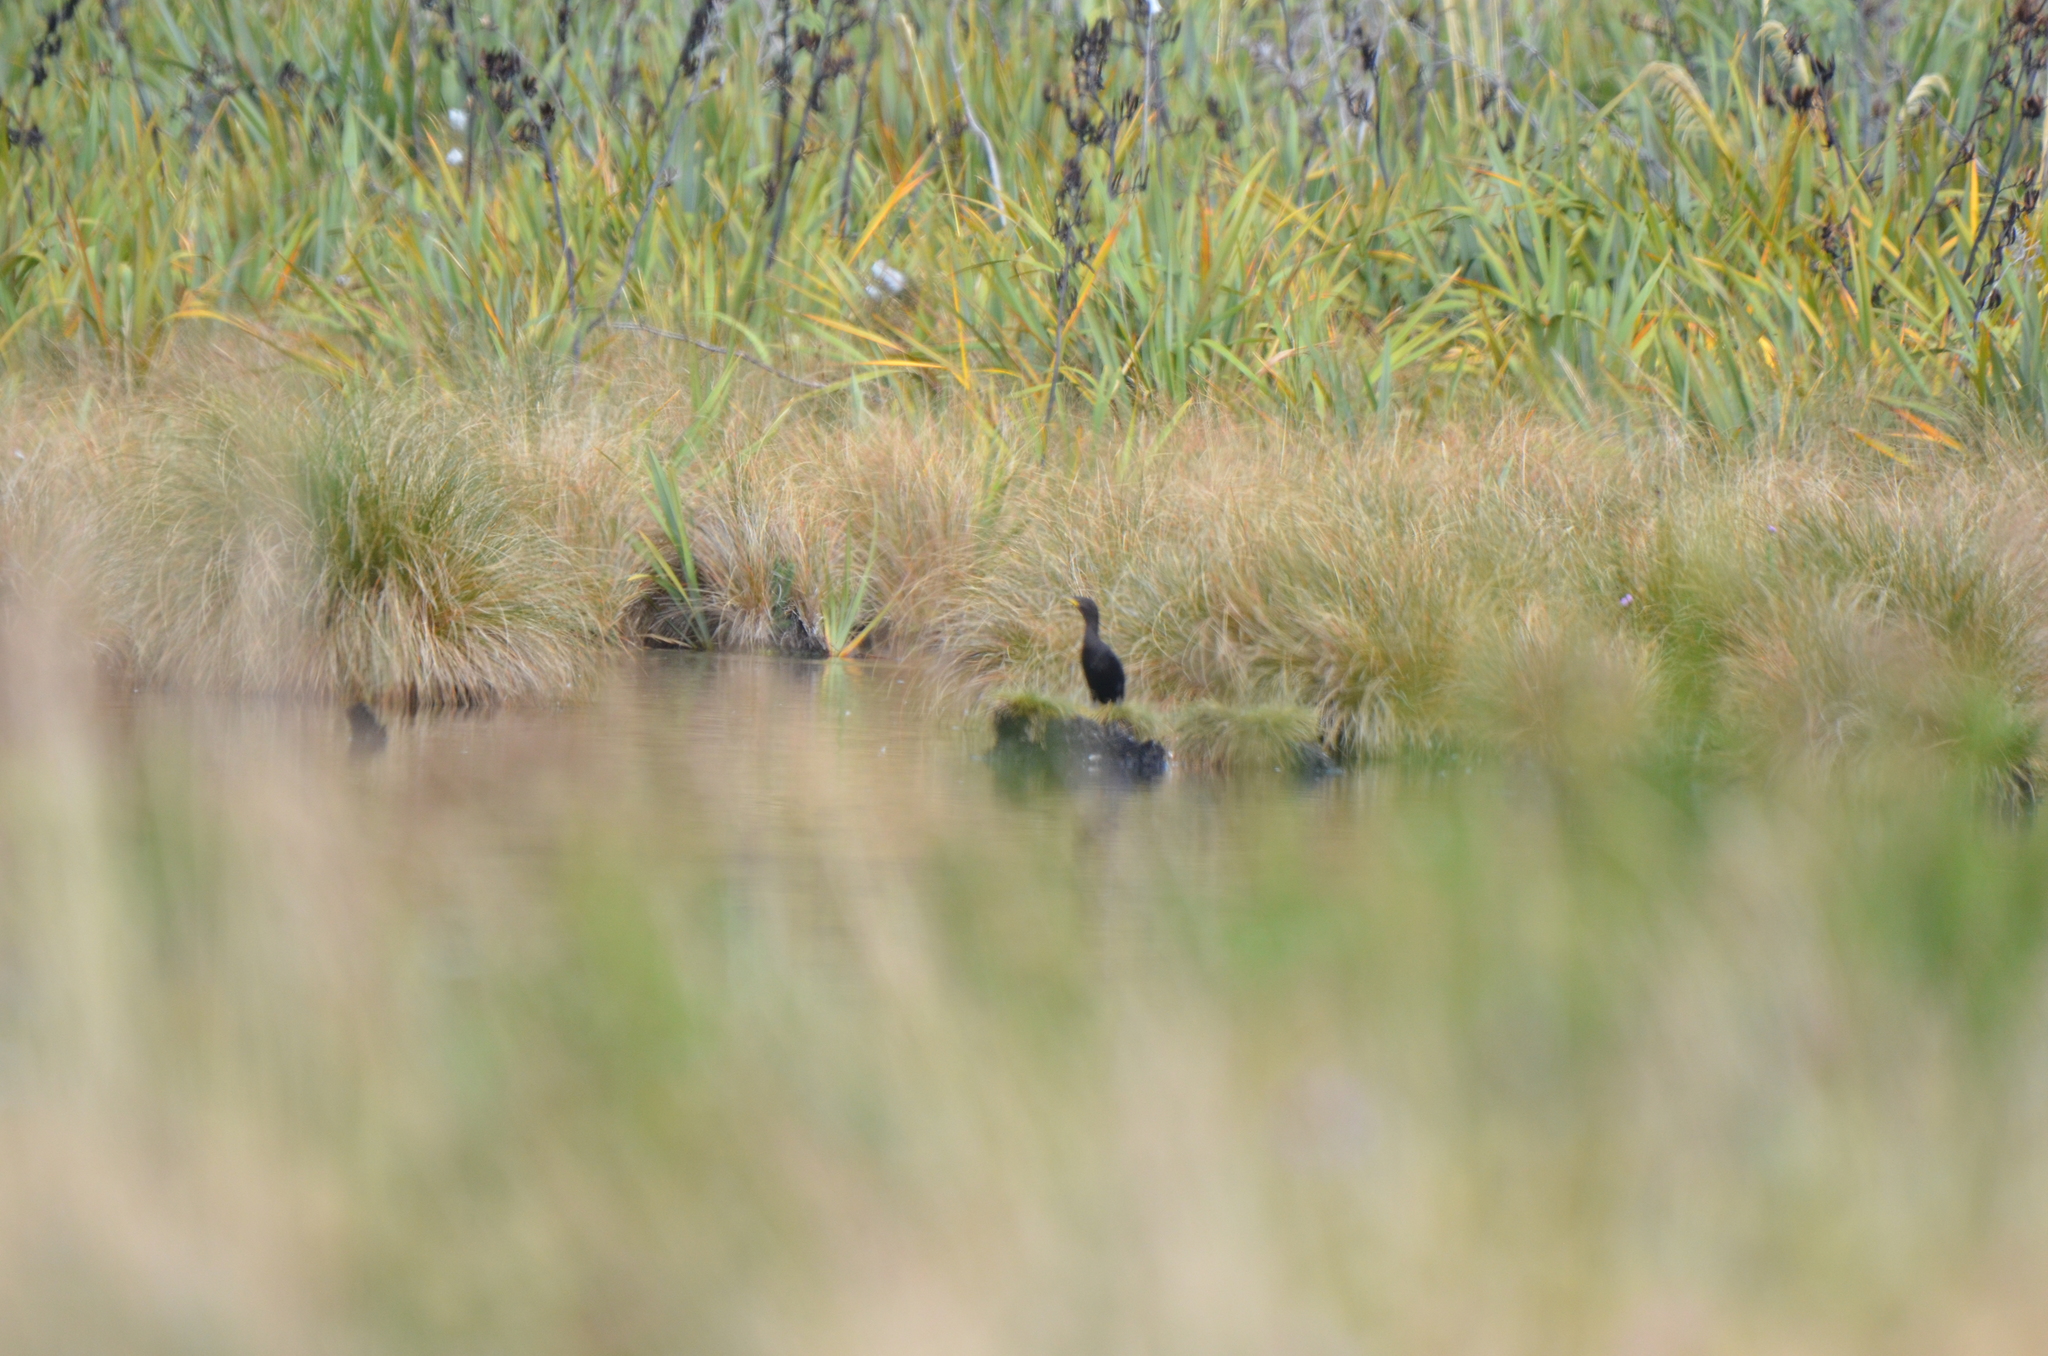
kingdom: Animalia
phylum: Chordata
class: Aves
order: Suliformes
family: Phalacrocoracidae
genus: Microcarbo
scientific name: Microcarbo melanoleucos
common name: Little pied cormorant
